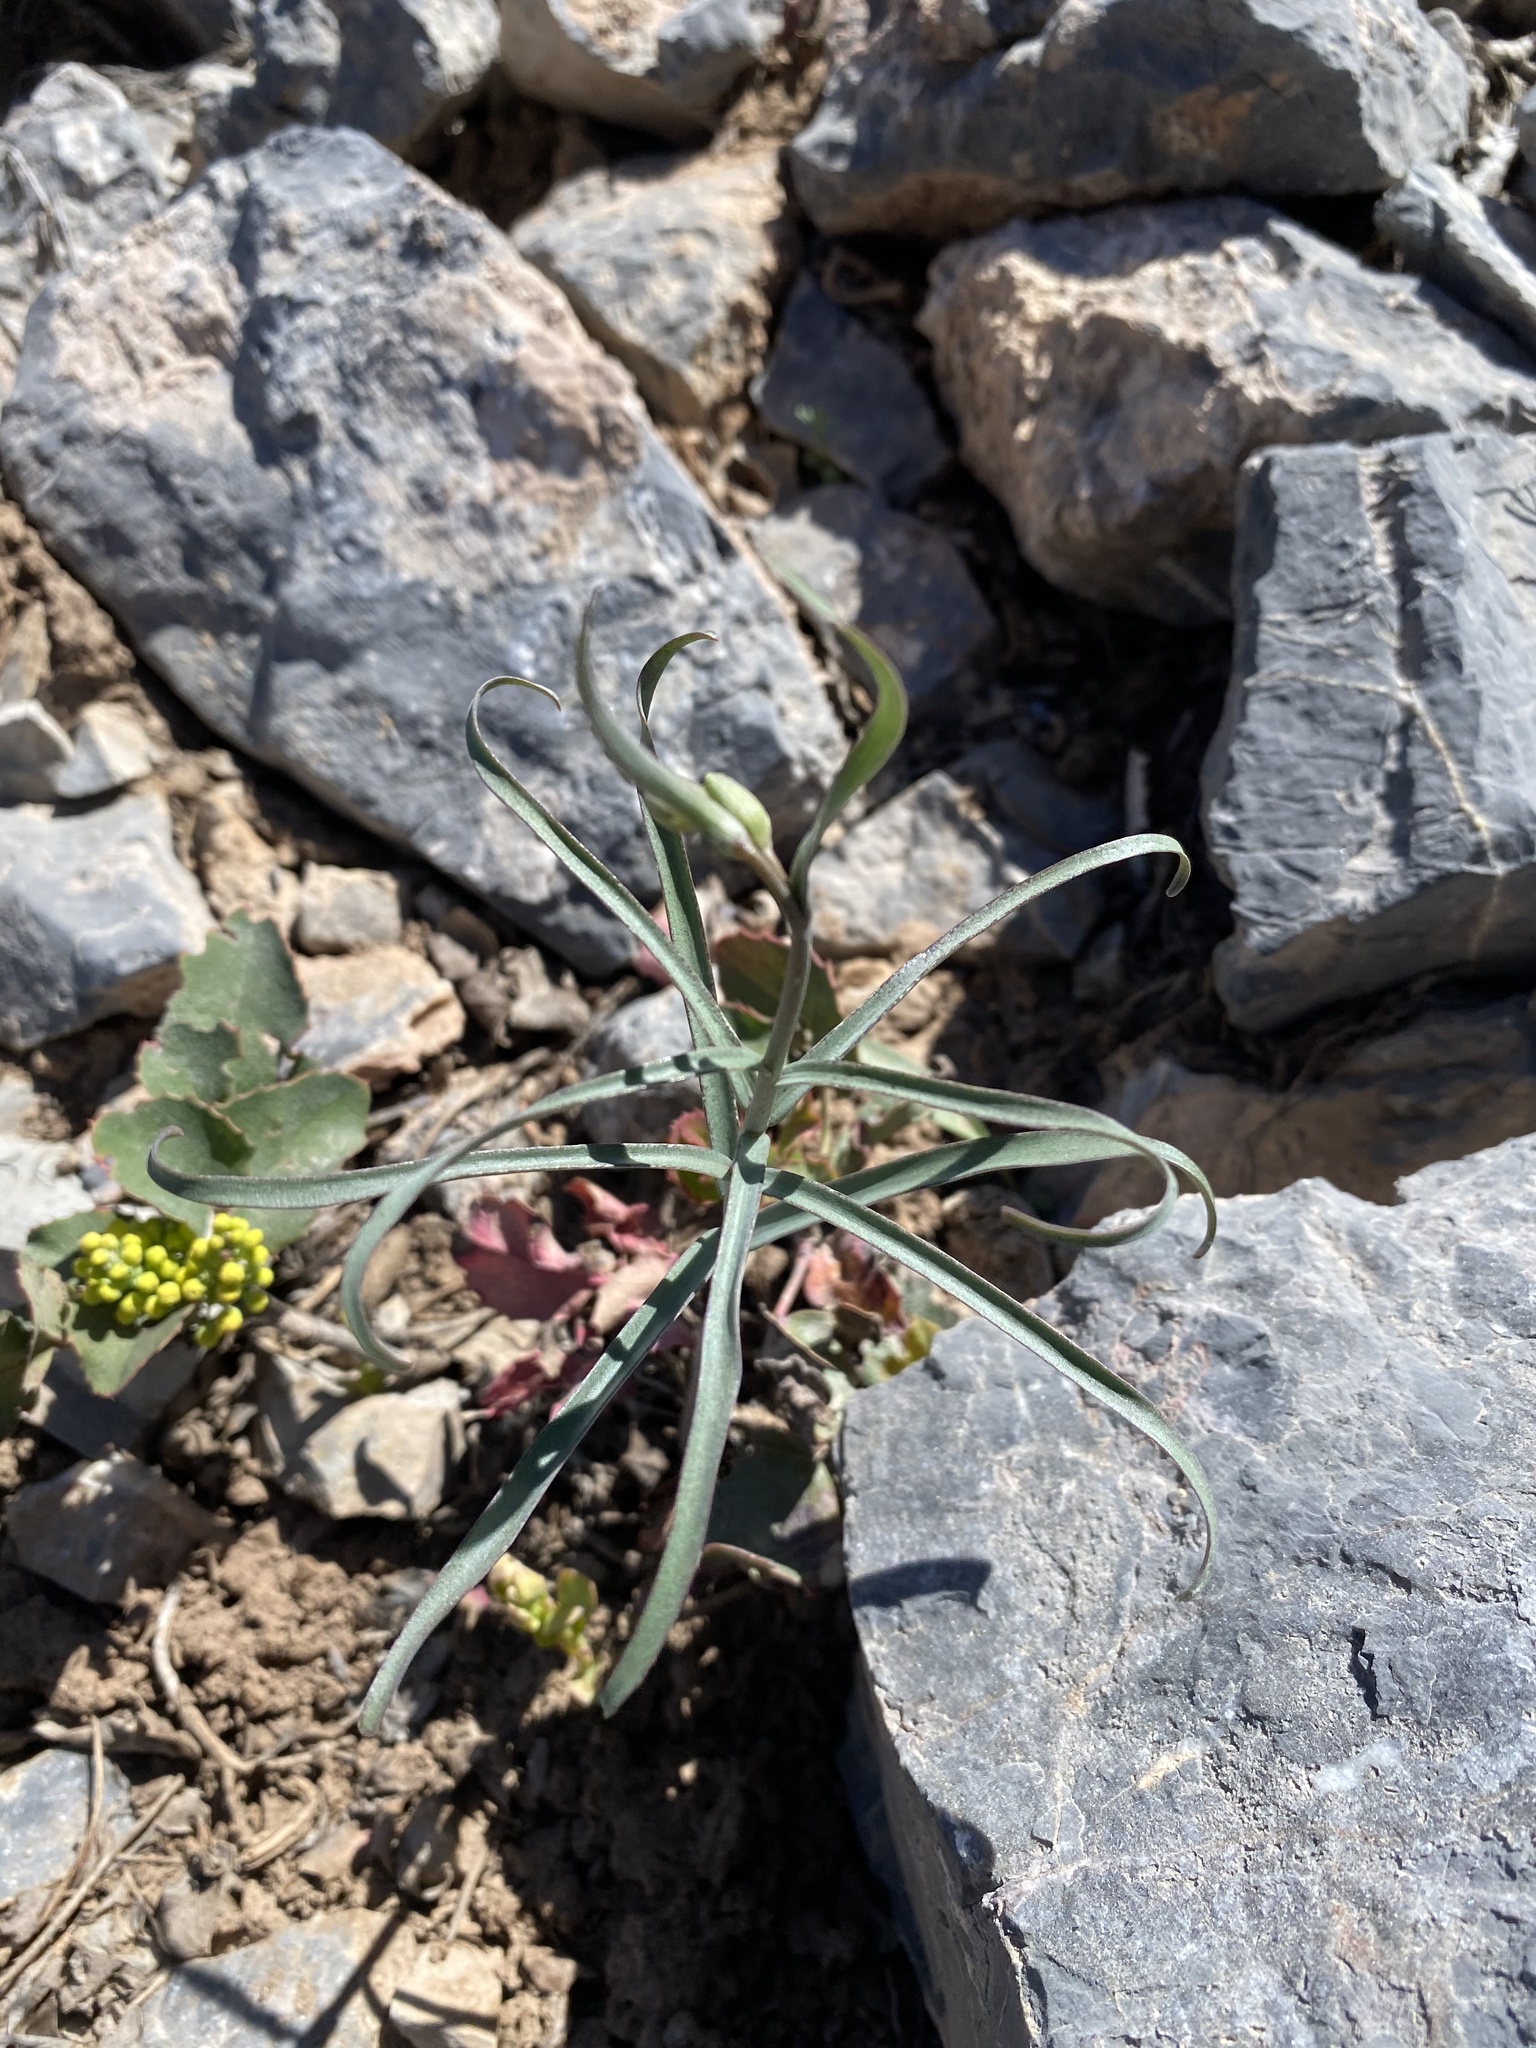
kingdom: Plantae
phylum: Tracheophyta
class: Liliopsida
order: Liliales
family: Liliaceae
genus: Fritillaria
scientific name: Fritillaria atropurpurea
